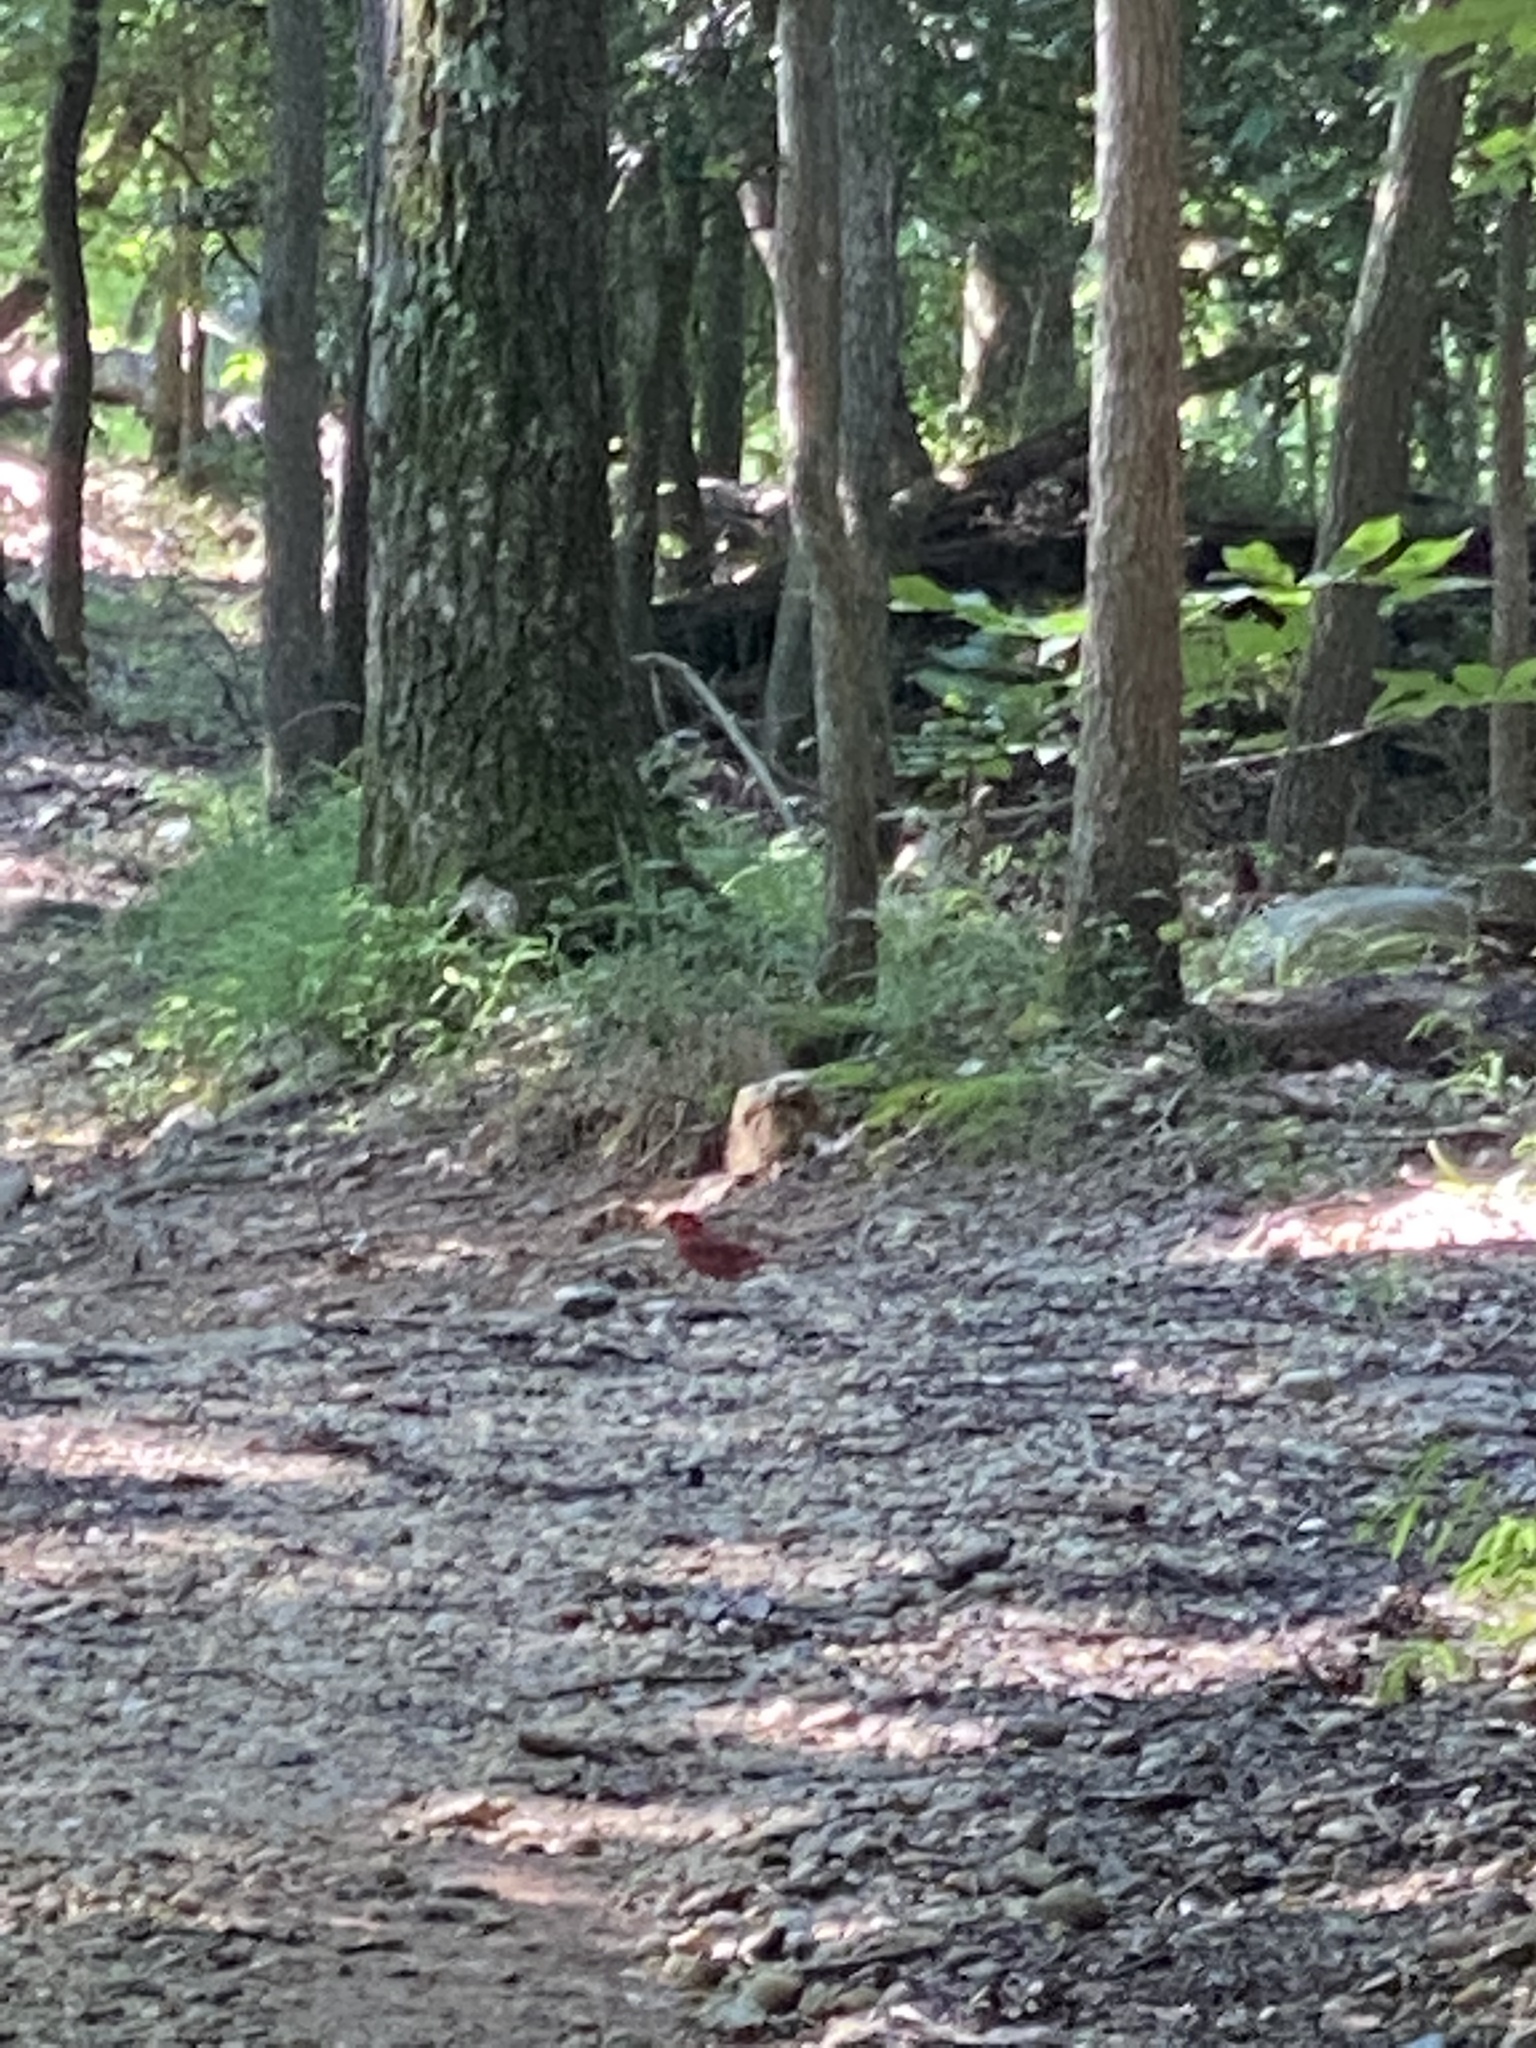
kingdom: Animalia
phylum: Chordata
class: Aves
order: Passeriformes
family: Cardinalidae
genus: Cardinalis
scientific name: Cardinalis cardinalis
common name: Northern cardinal
